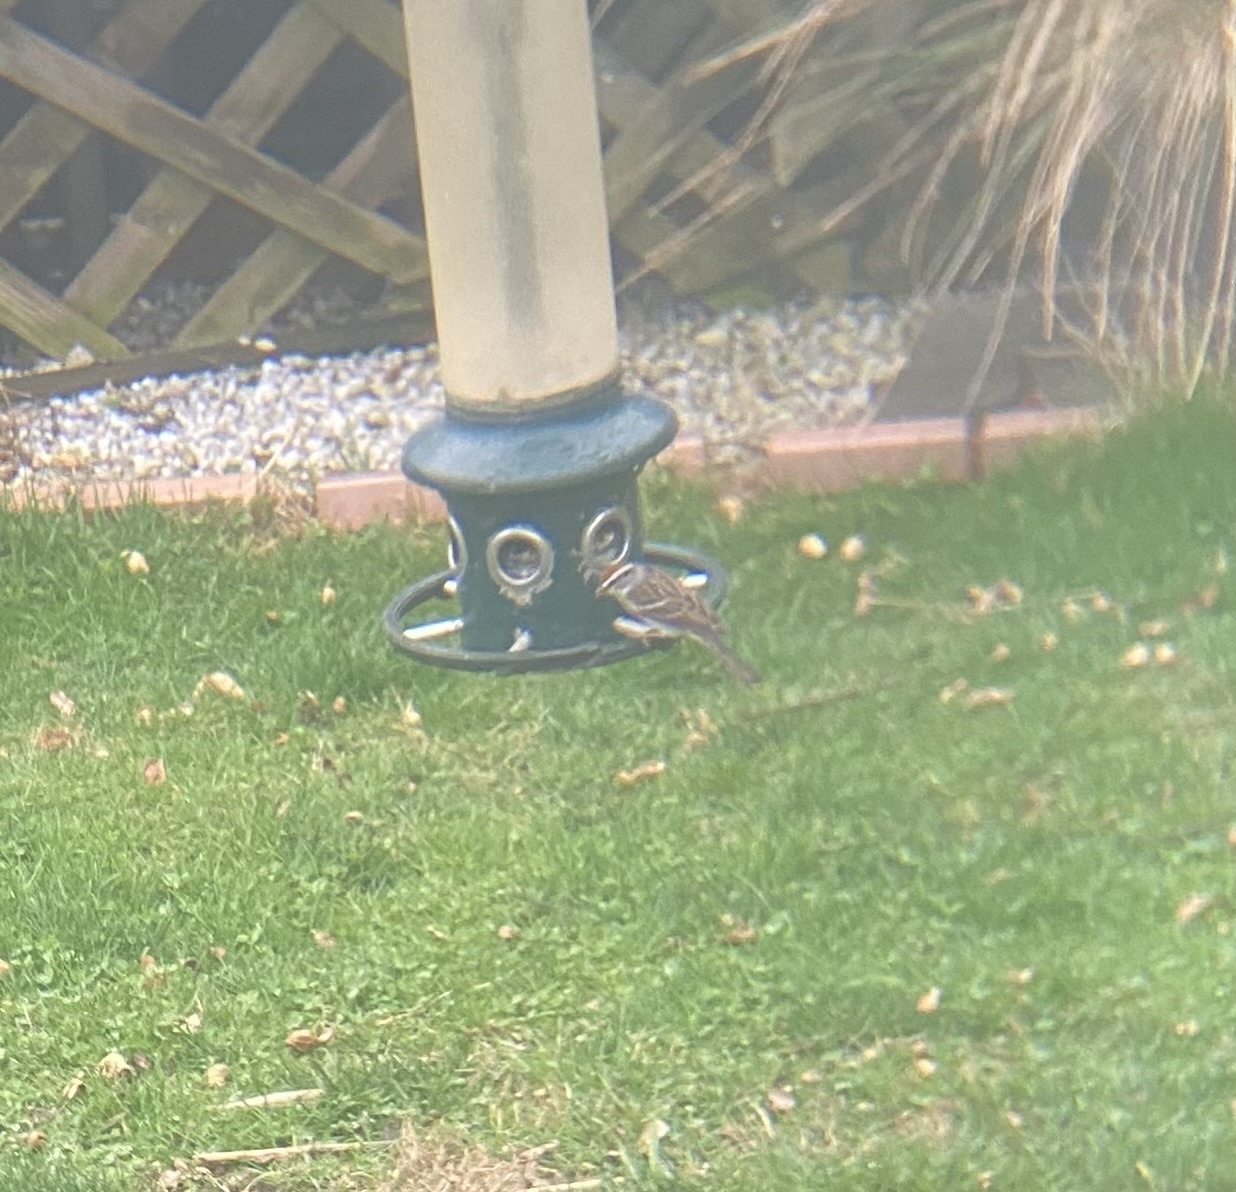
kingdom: Animalia
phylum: Chordata
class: Aves
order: Passeriformes
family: Passerellidae
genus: Spizella
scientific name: Spizella passerina
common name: Chipping sparrow
